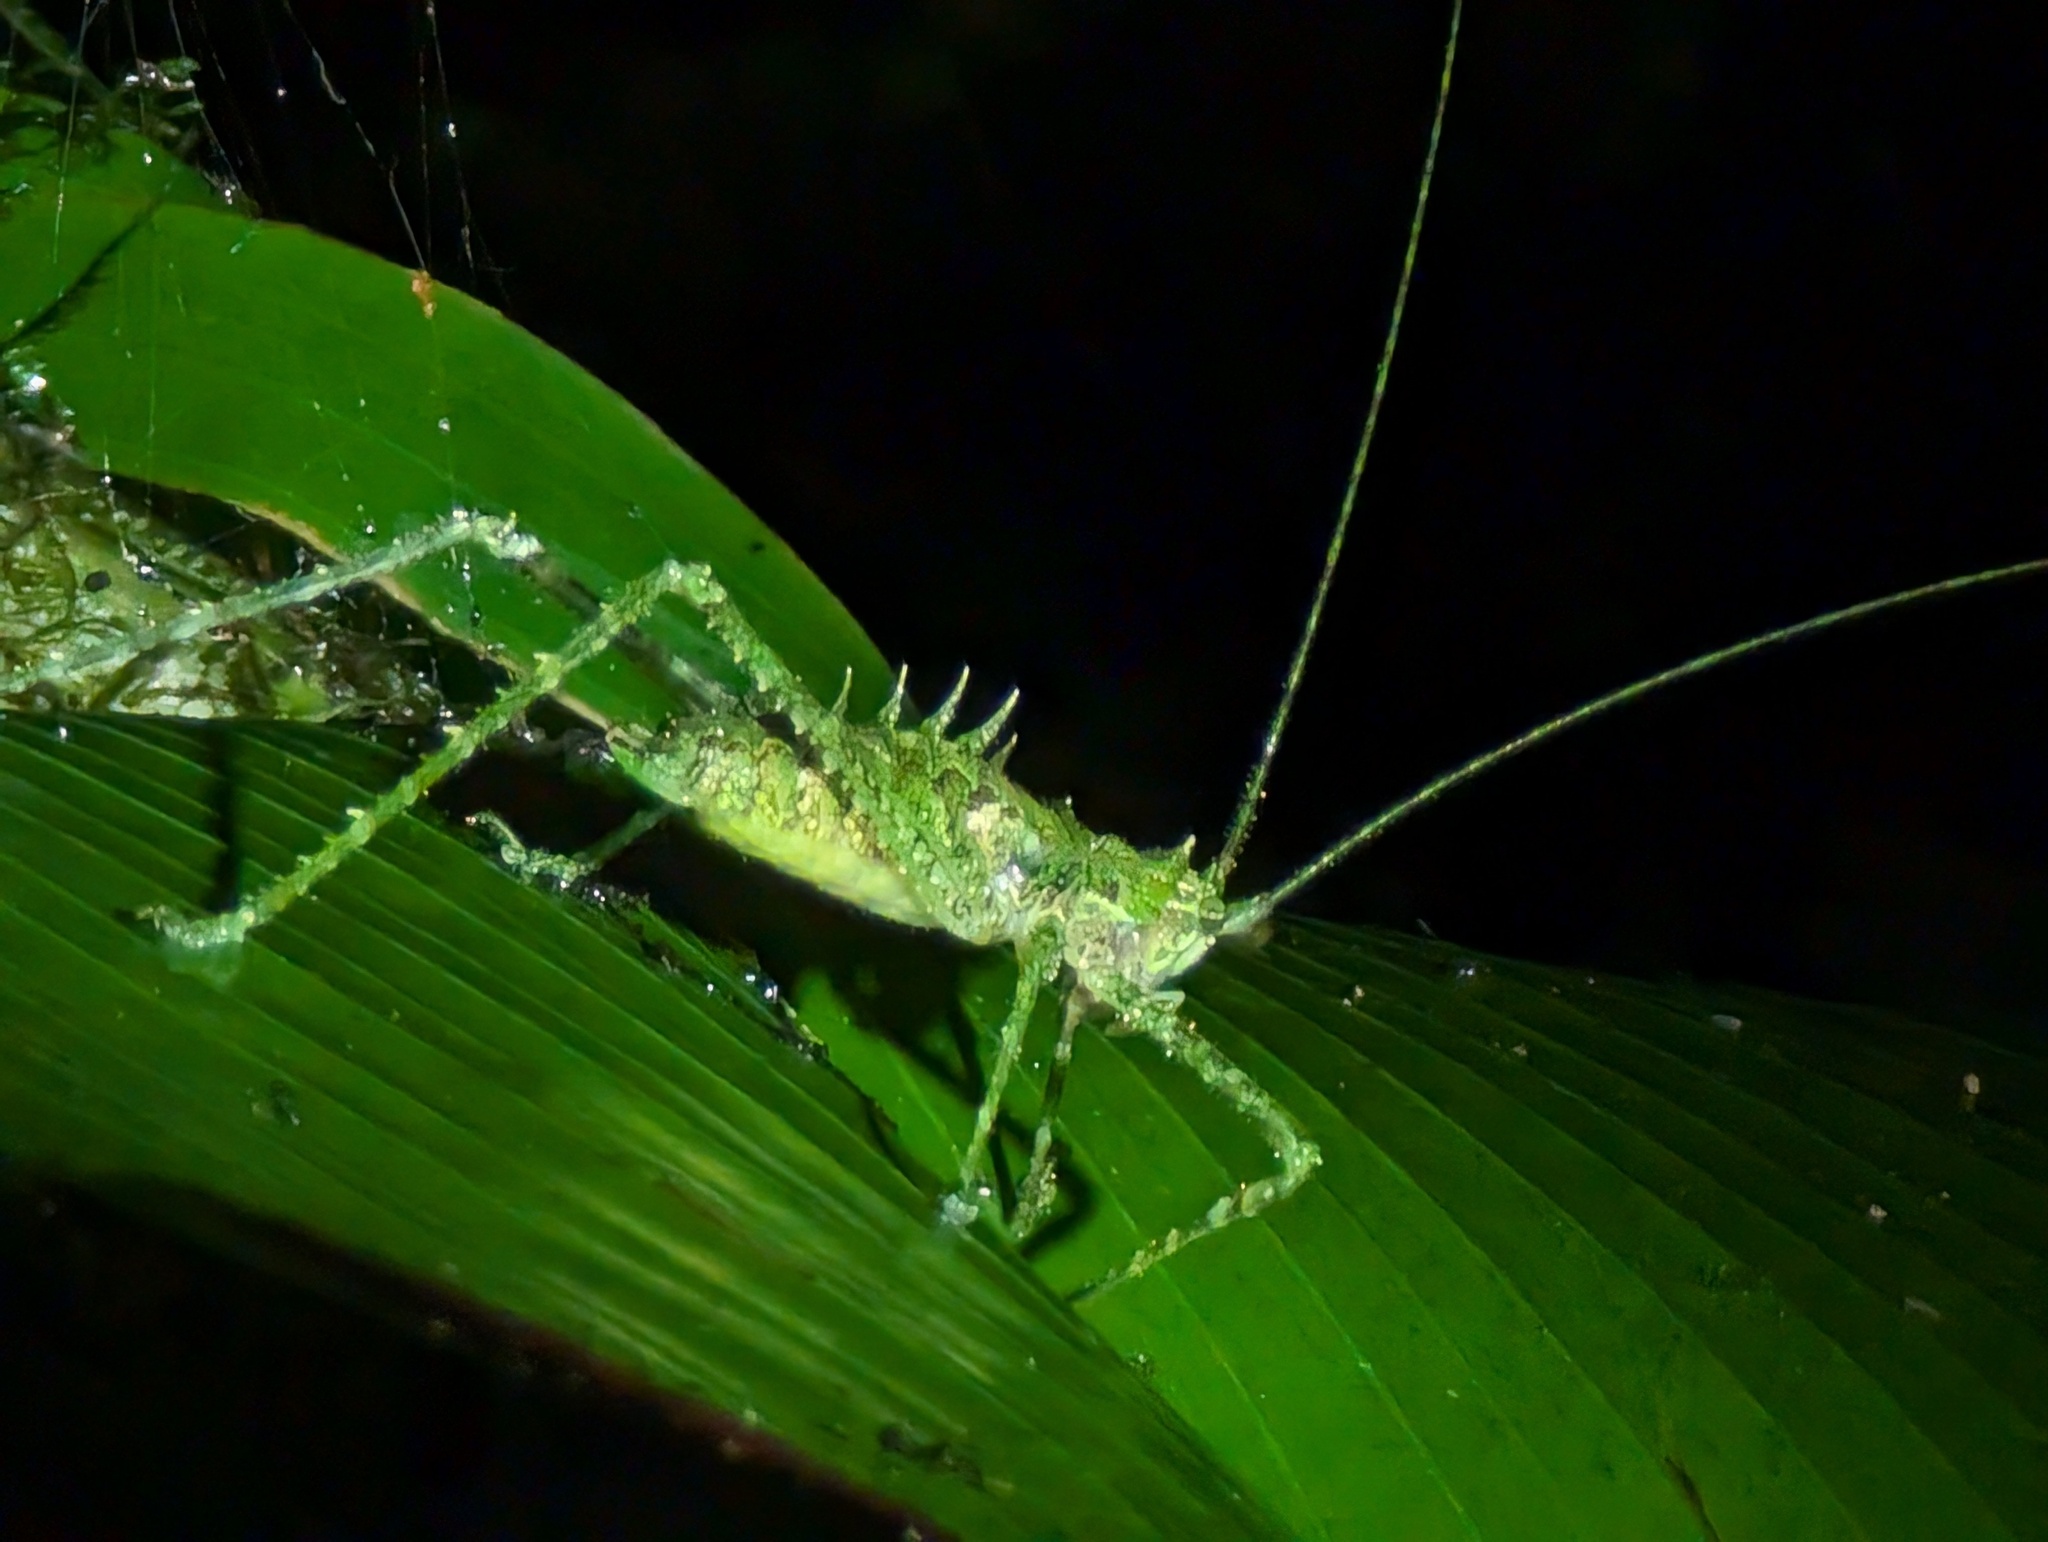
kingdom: Animalia
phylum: Arthropoda
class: Insecta
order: Orthoptera
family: Tettigoniidae
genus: Championica
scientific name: Championica montana
